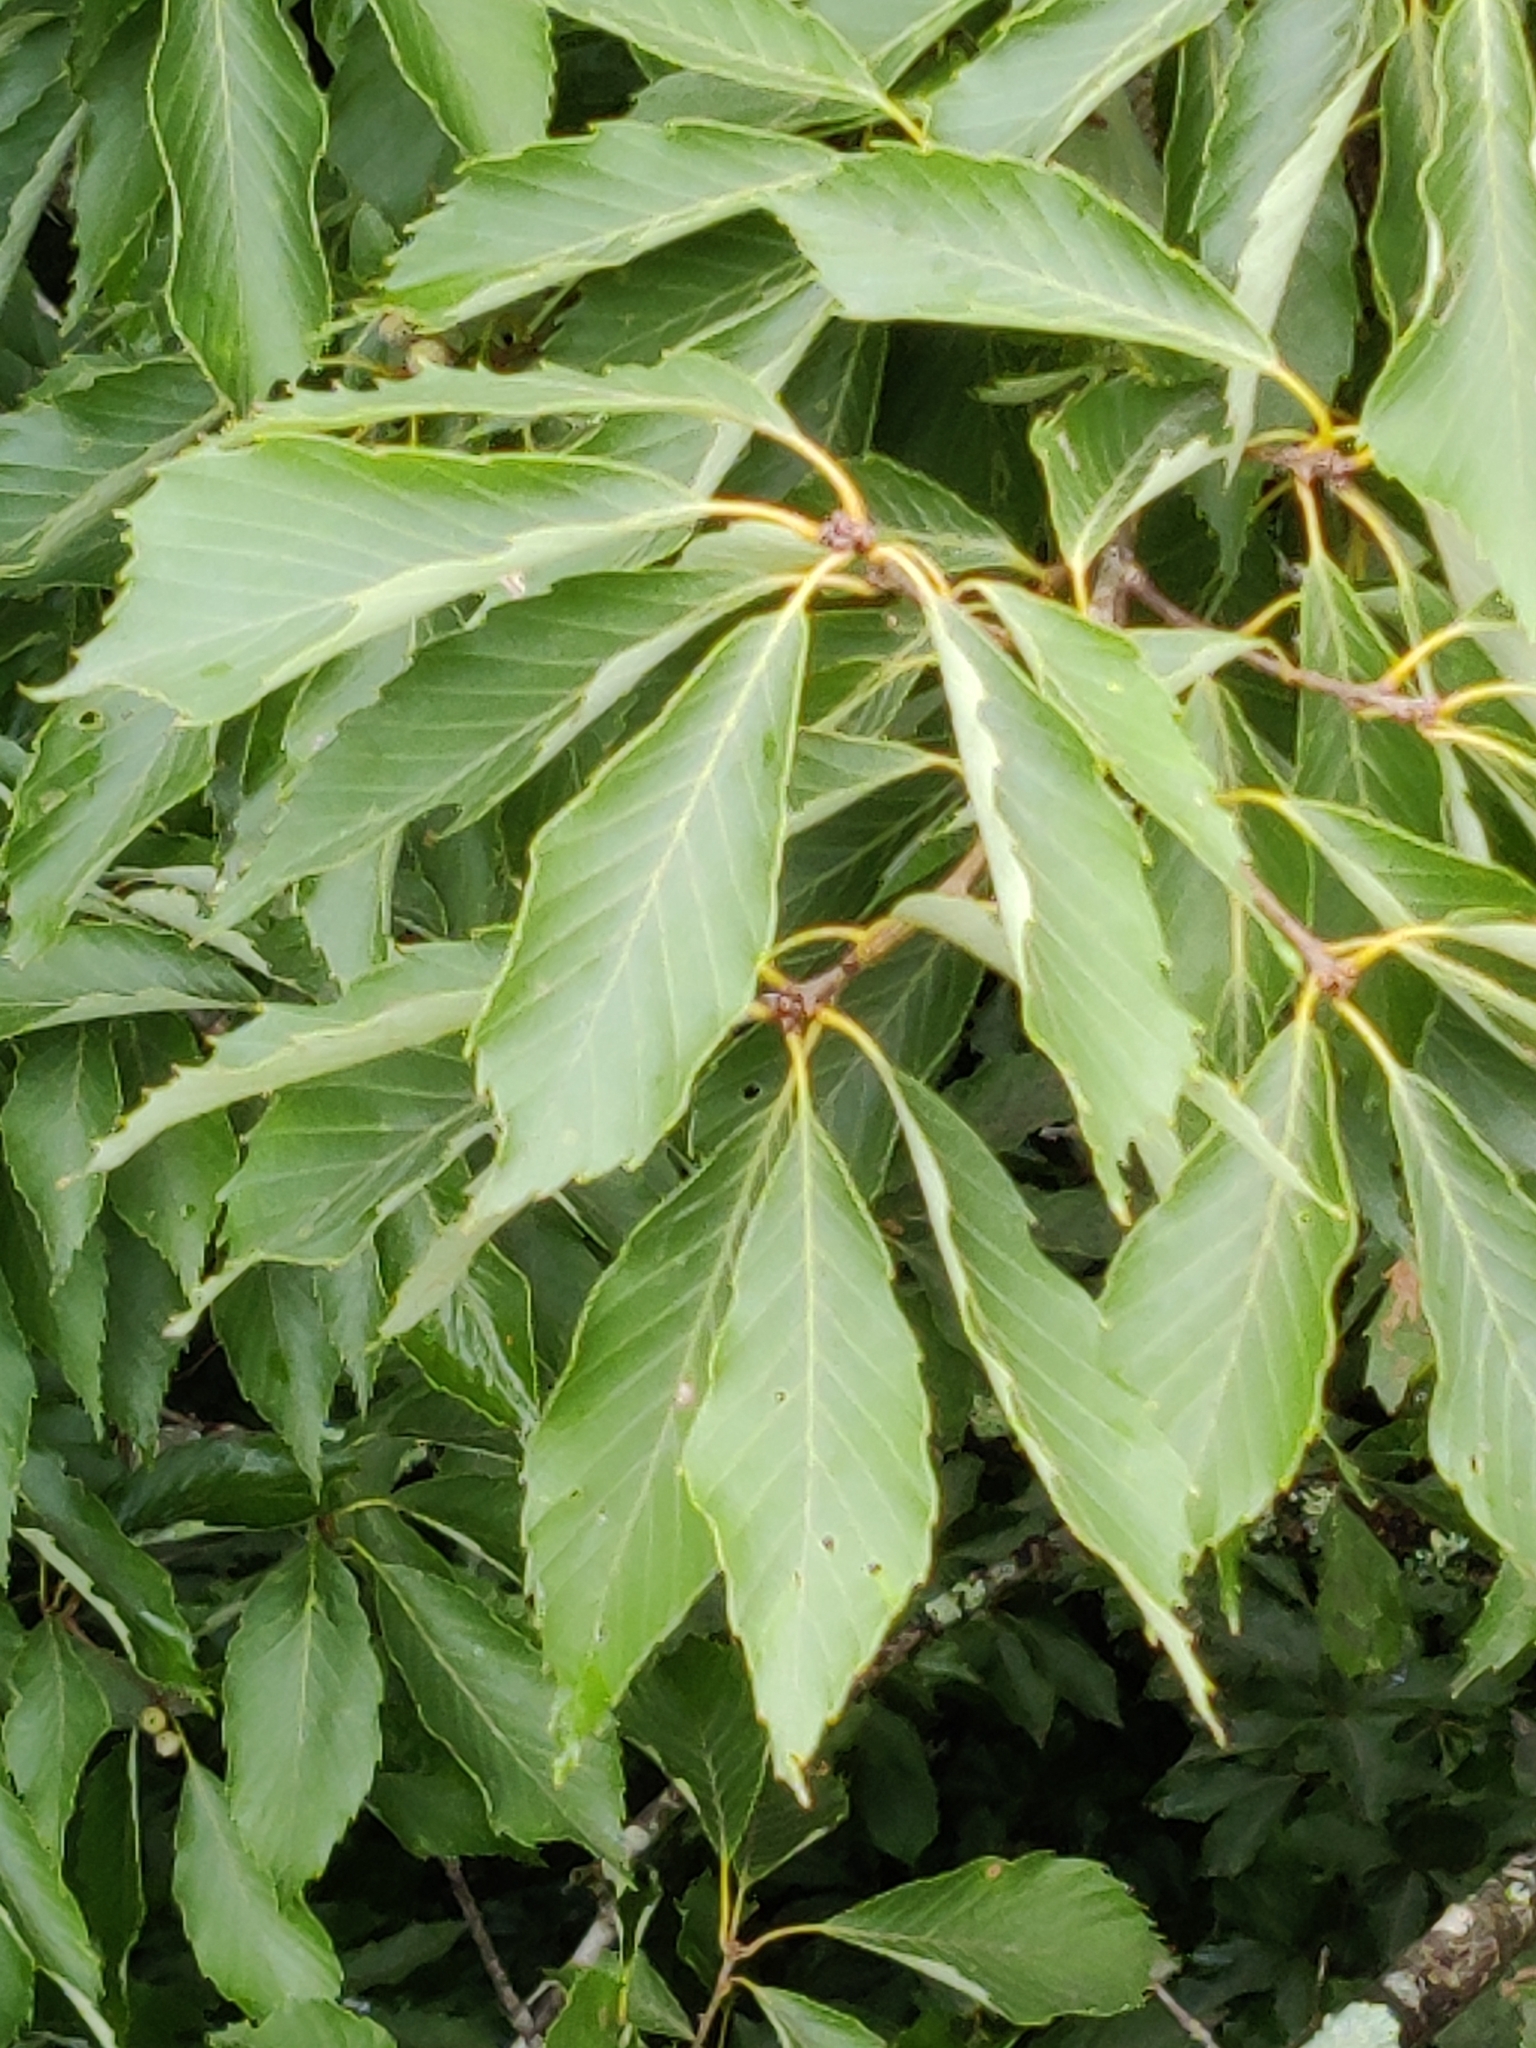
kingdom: Plantae
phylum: Tracheophyta
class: Magnoliopsida
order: Fagales
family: Fagaceae
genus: Quercus
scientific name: Quercus serrata
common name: Bao li
